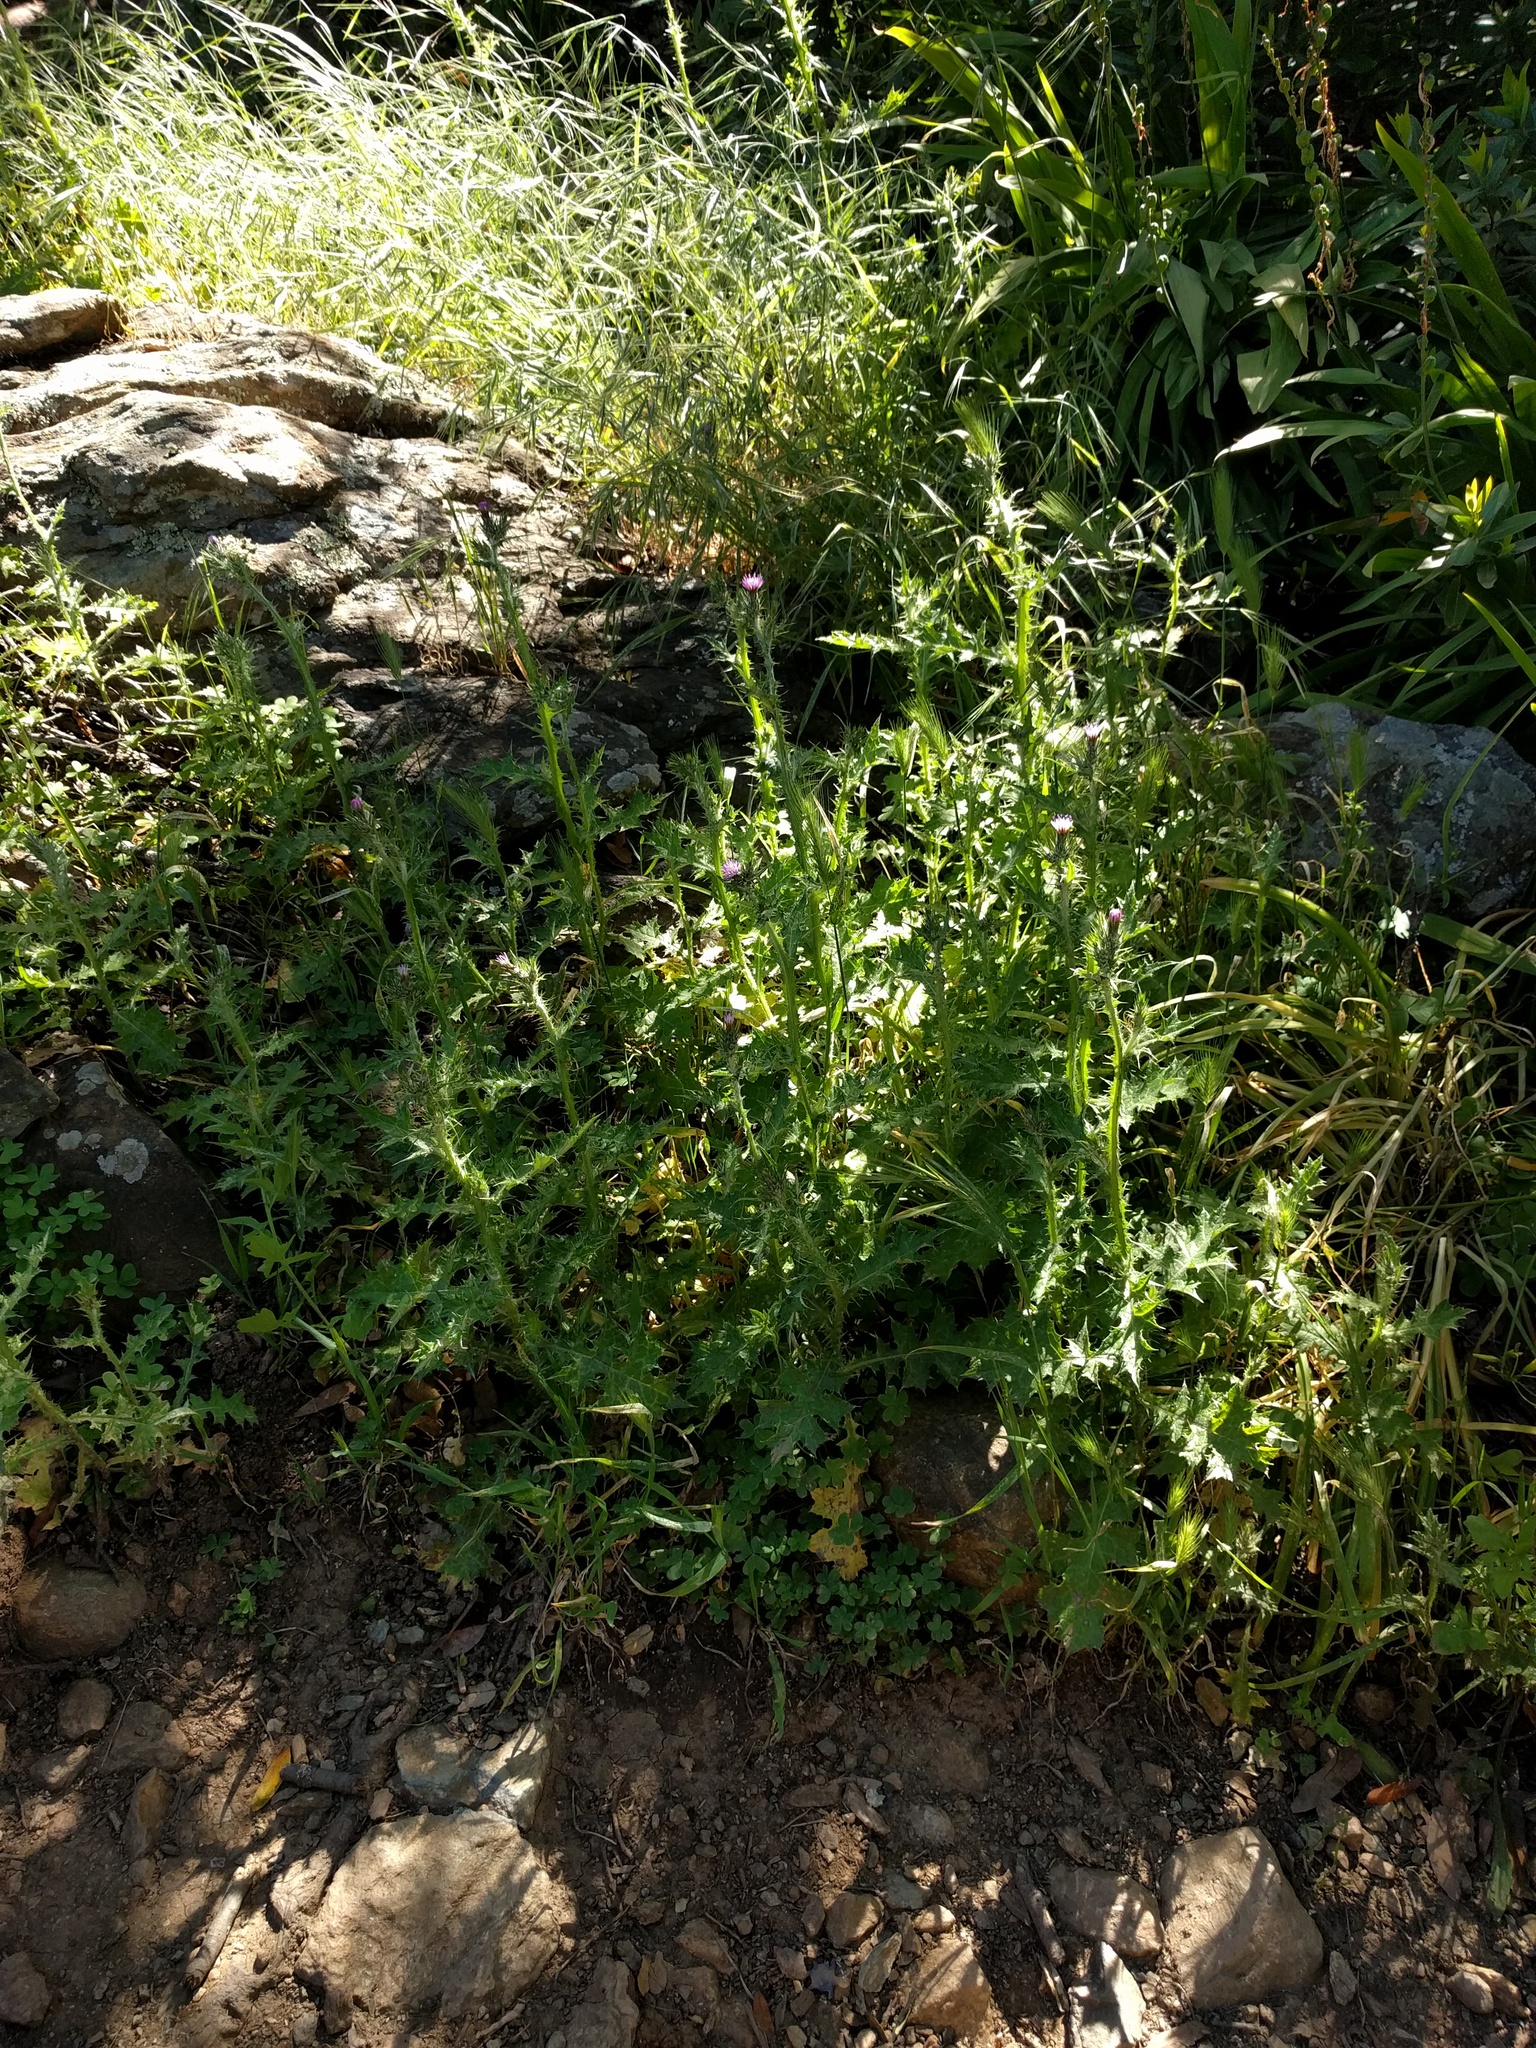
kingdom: Plantae
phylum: Tracheophyta
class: Magnoliopsida
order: Asterales
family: Asteraceae
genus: Carduus
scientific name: Carduus pycnocephalus
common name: Plymouth thistle
